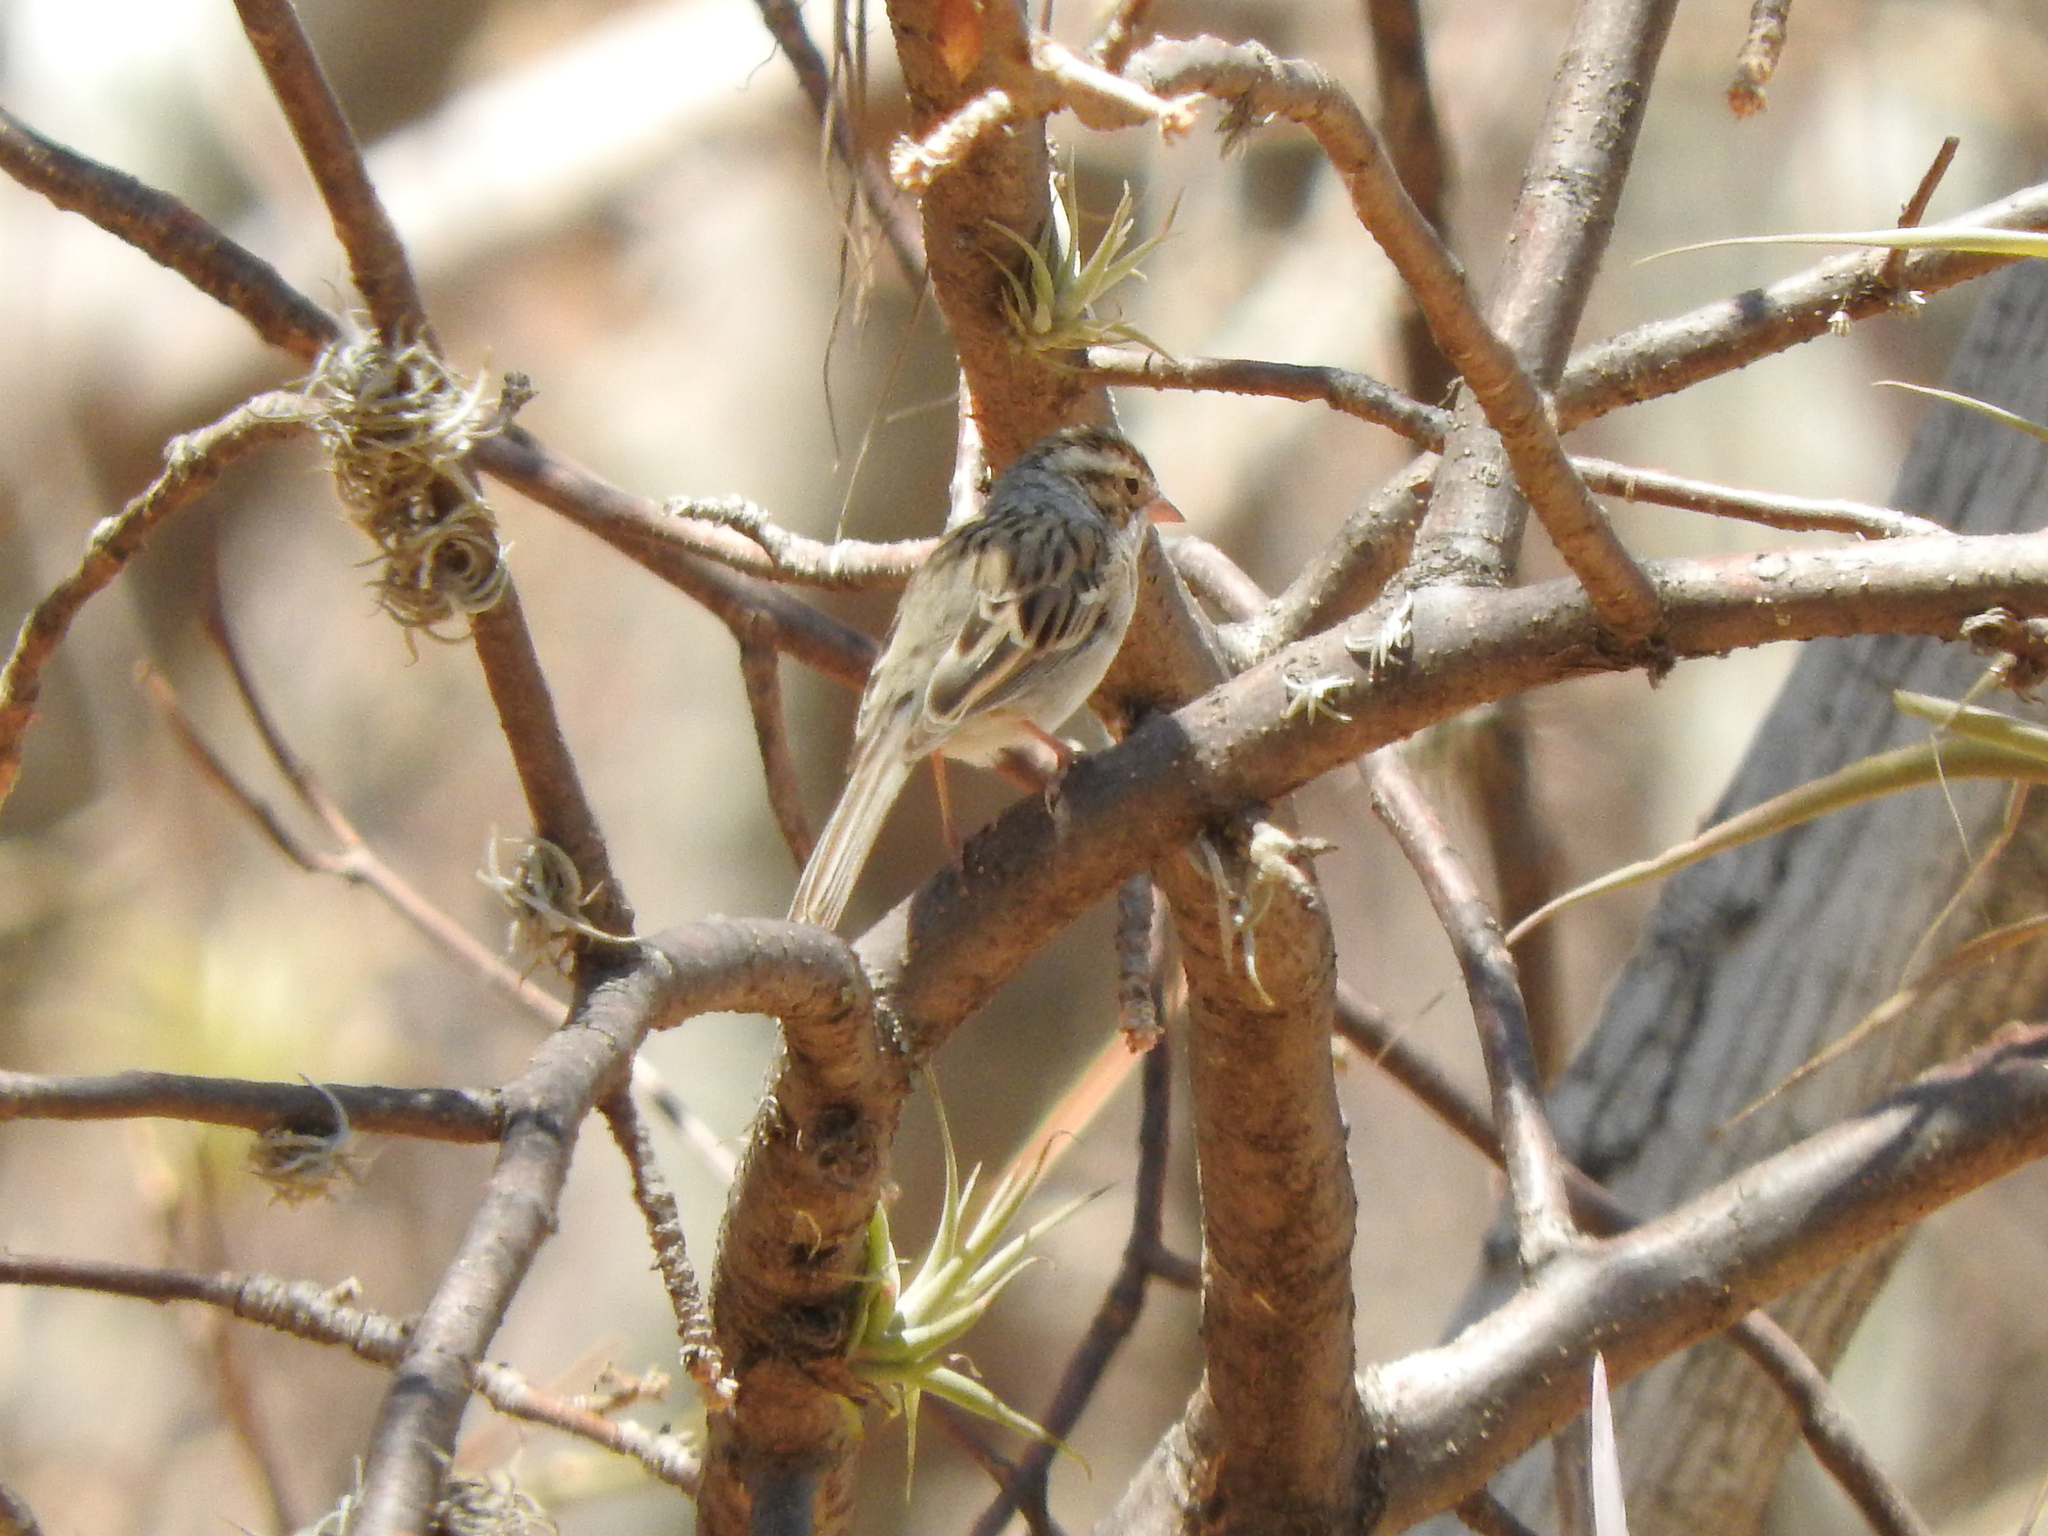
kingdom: Animalia
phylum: Chordata
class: Aves
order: Passeriformes
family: Passerellidae
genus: Spizella
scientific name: Spizella pallida
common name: Clay-colored sparrow
